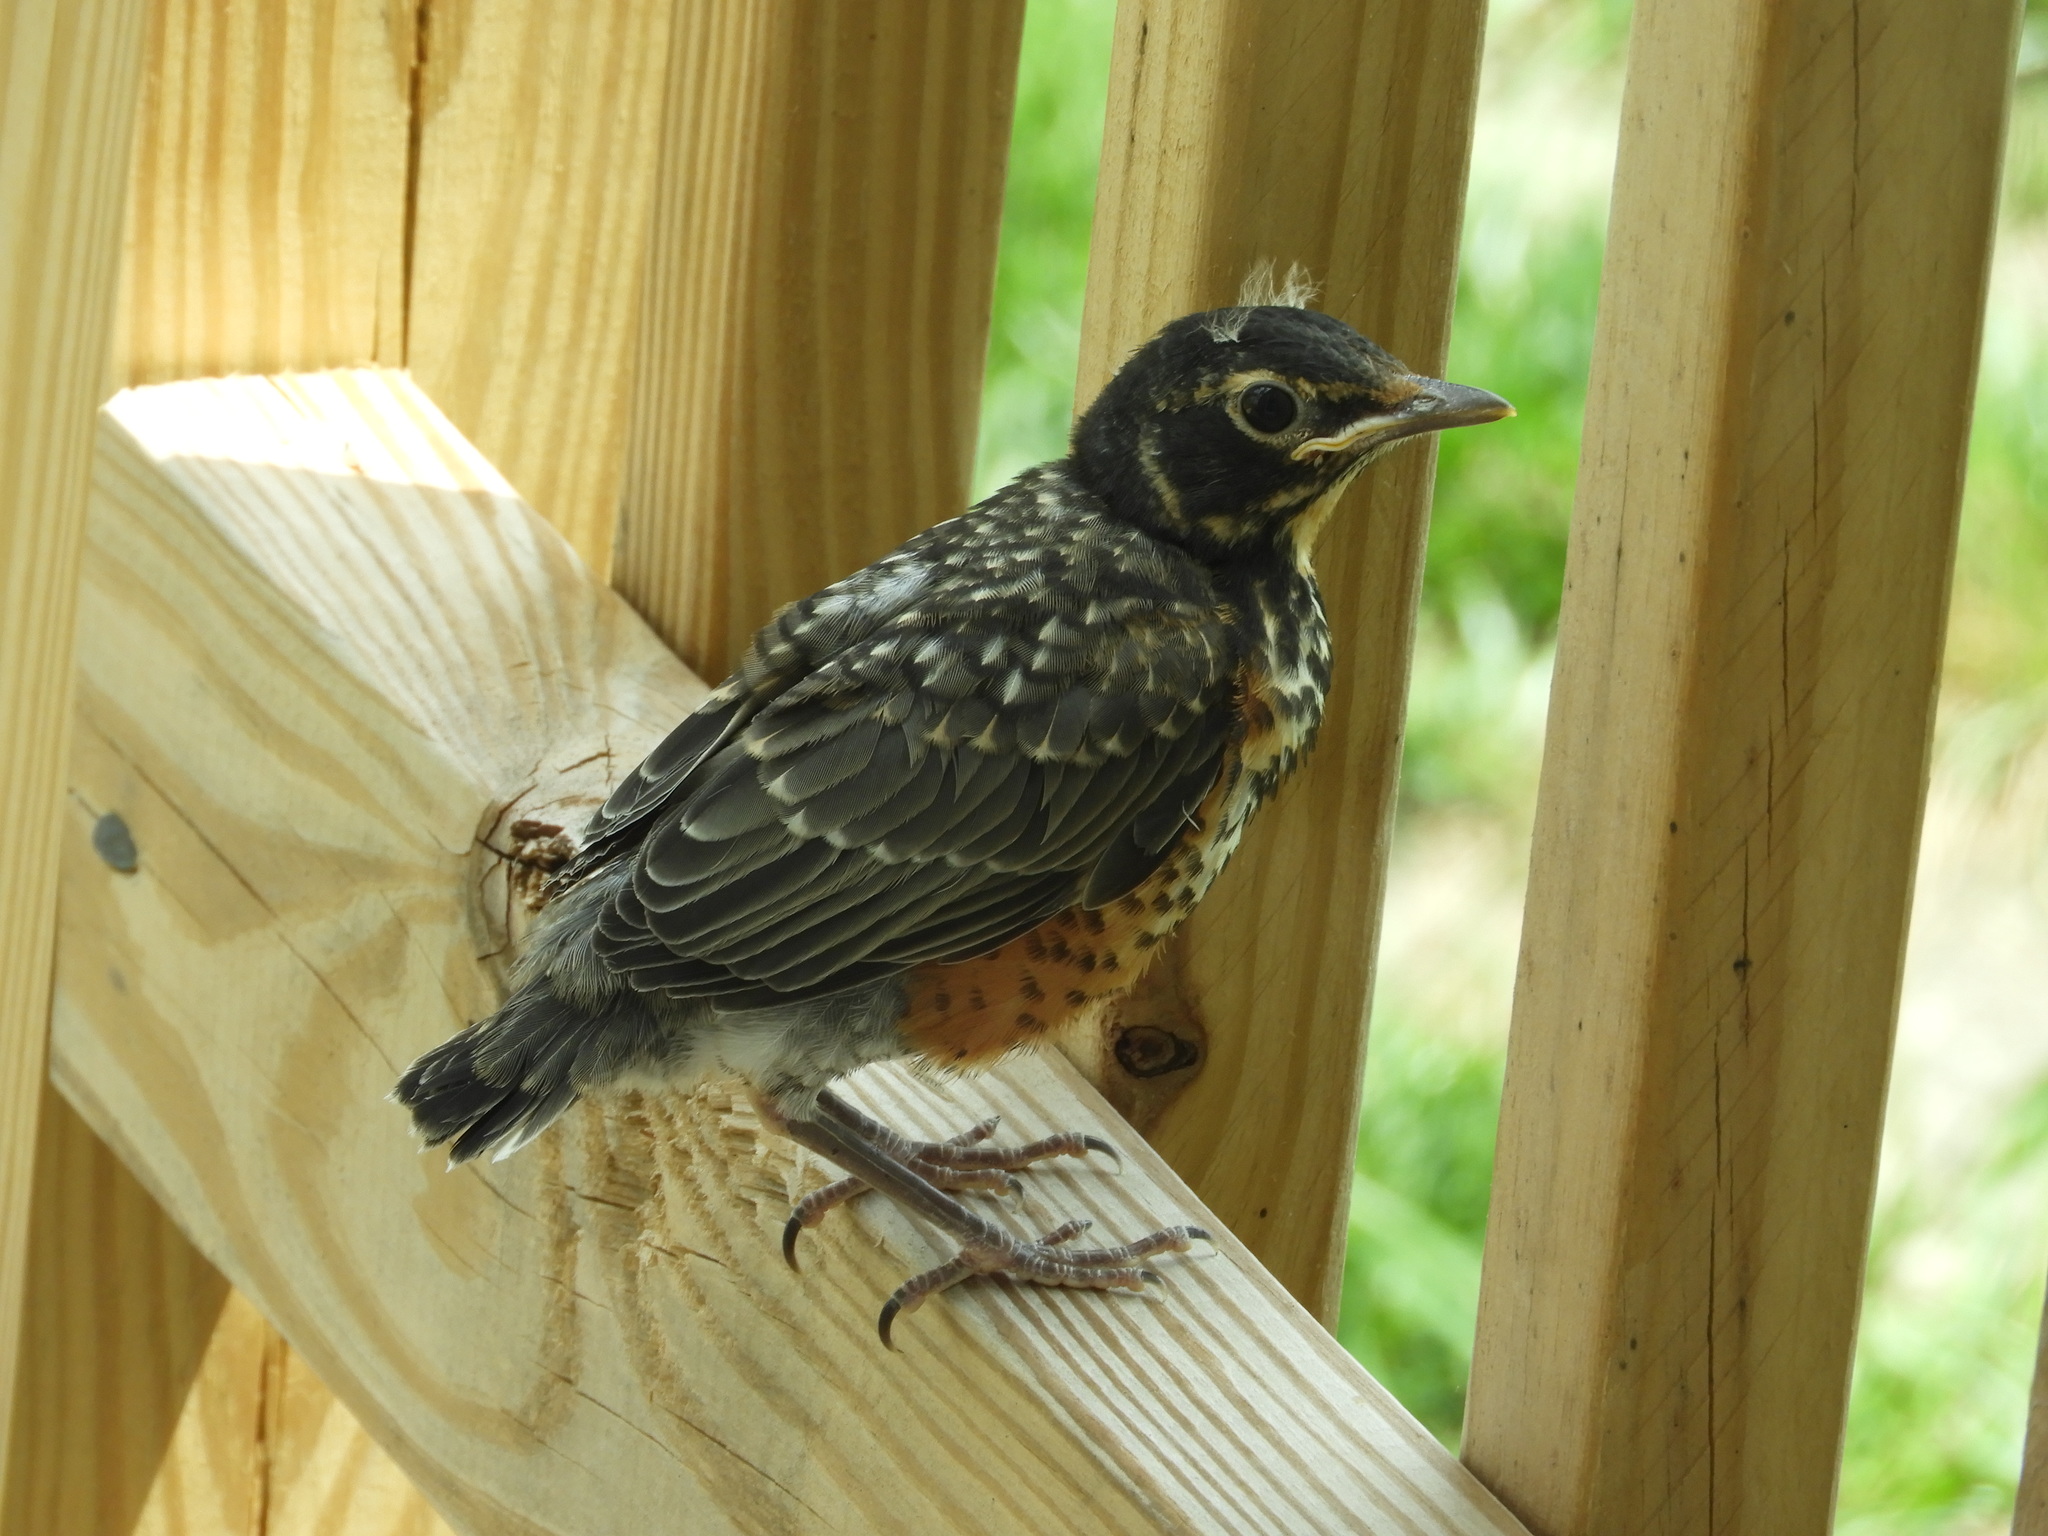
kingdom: Animalia
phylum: Chordata
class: Aves
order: Passeriformes
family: Turdidae
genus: Turdus
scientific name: Turdus migratorius
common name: American robin
